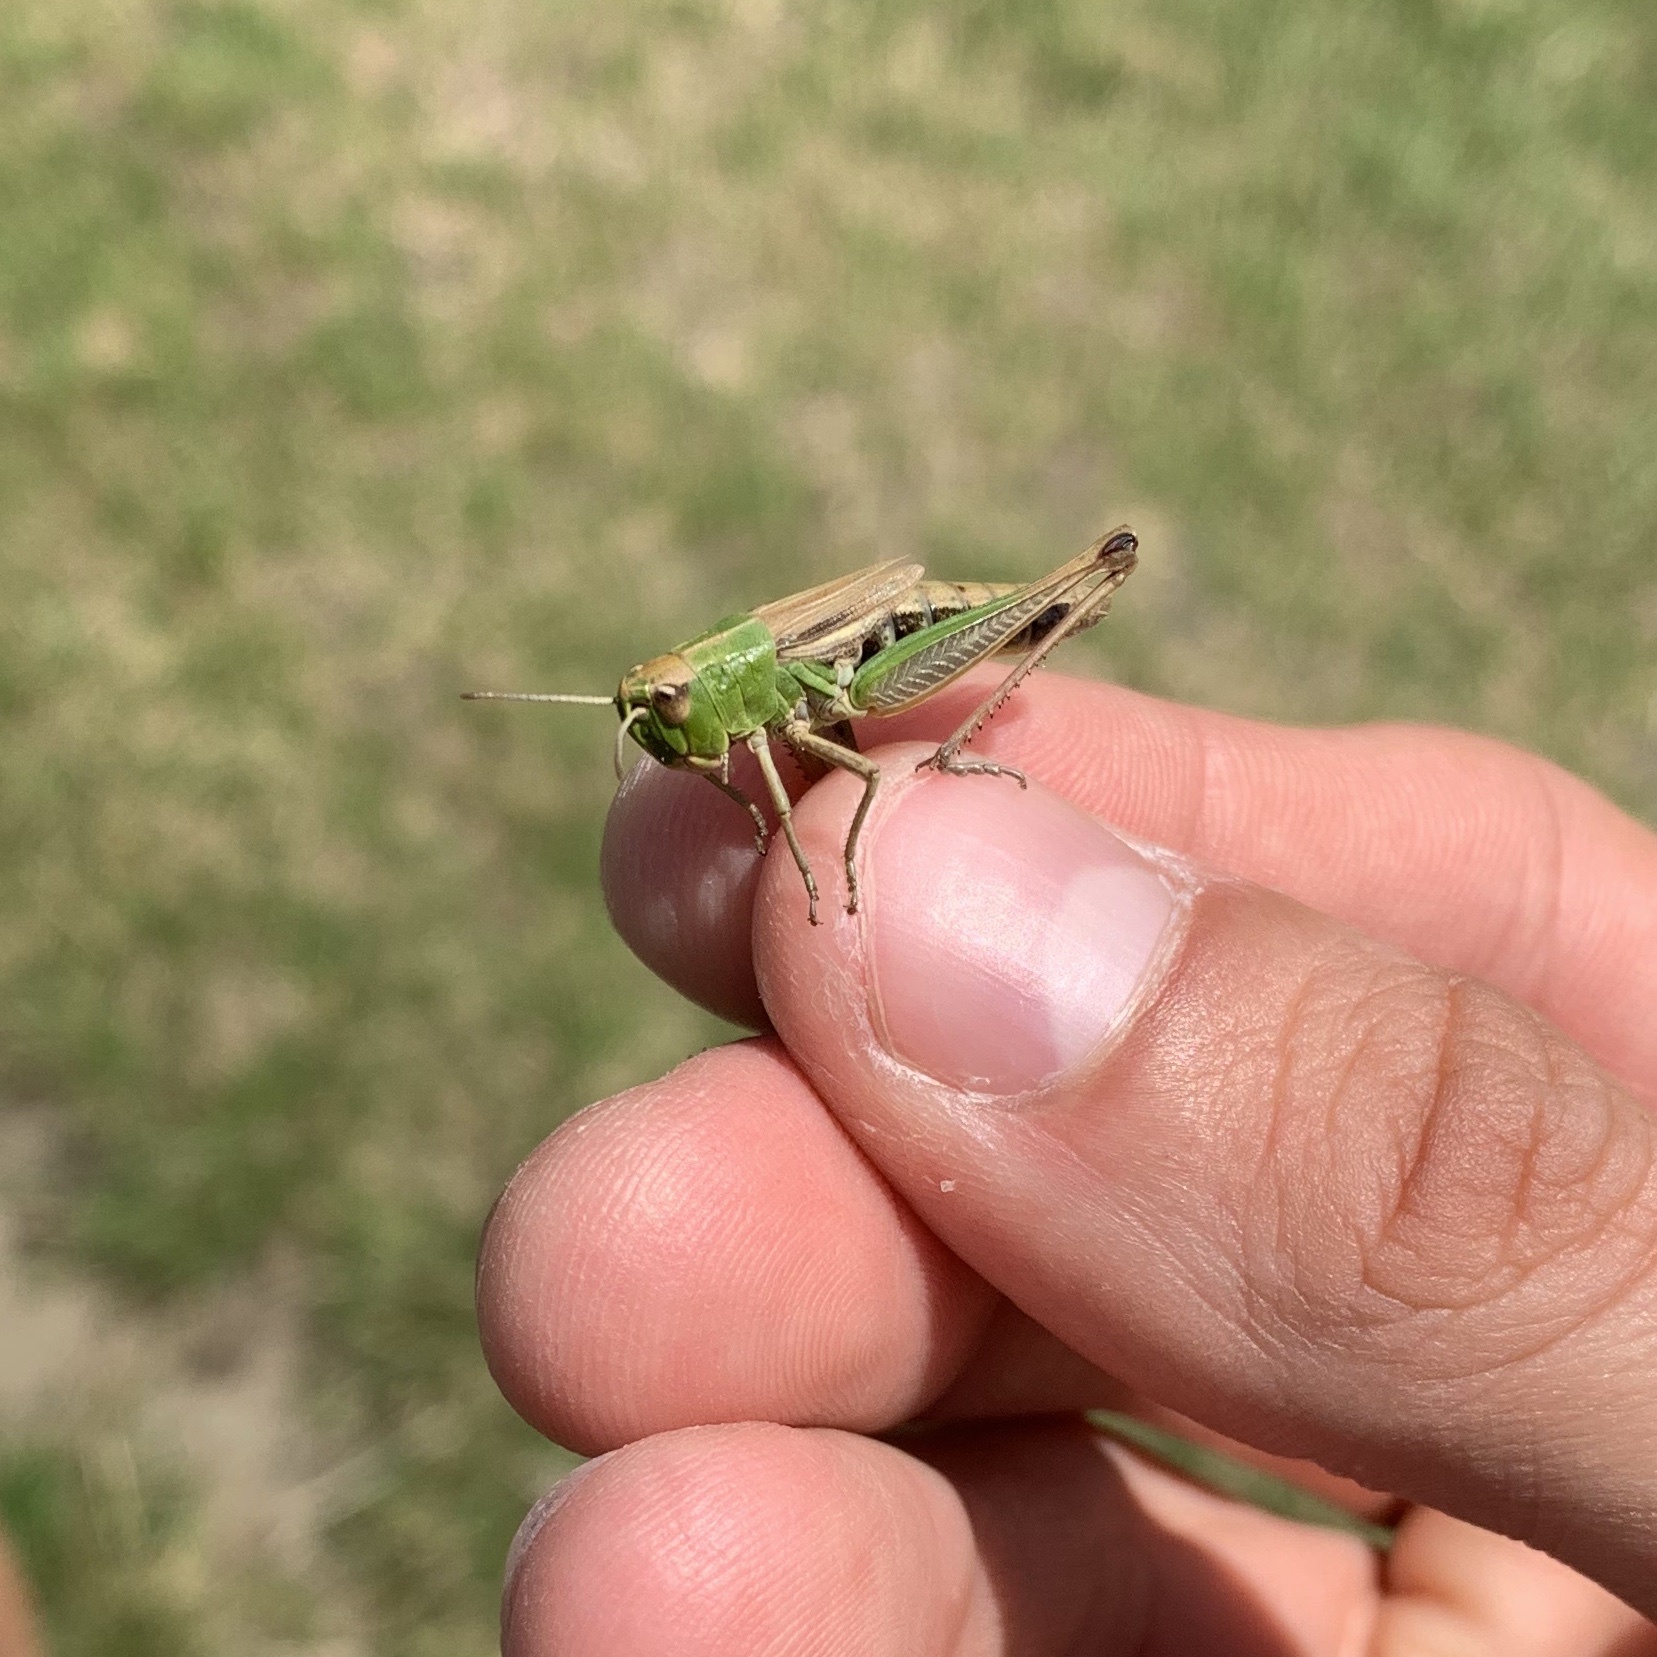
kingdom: Animalia
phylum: Arthropoda
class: Insecta
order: Orthoptera
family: Acrididae
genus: Pseudochorthippus
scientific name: Pseudochorthippus parallelus
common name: Meadow grasshopper
